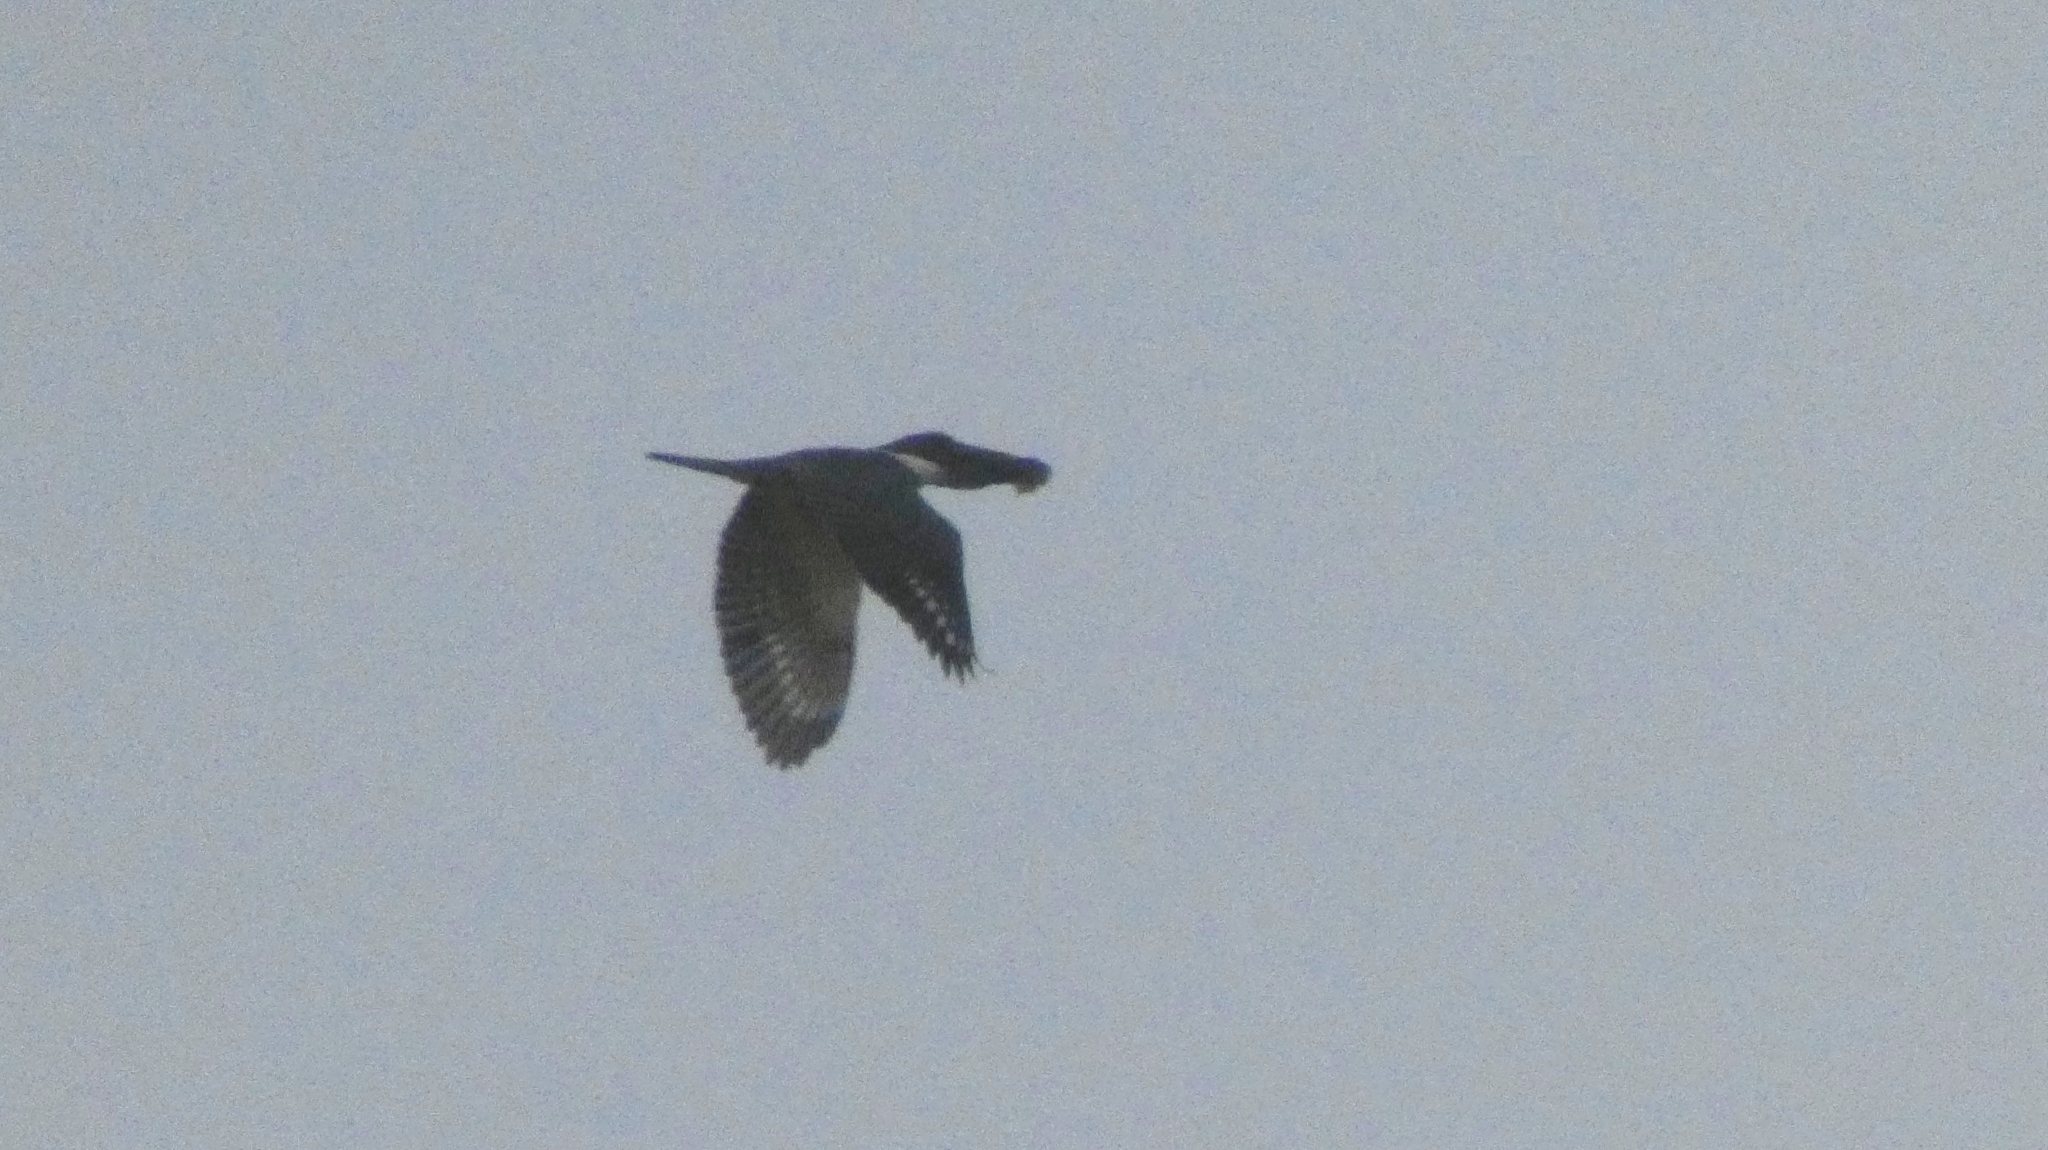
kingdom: Animalia
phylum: Chordata
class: Aves
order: Coraciiformes
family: Alcedinidae
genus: Megaceryle
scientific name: Megaceryle torquata
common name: Ringed kingfisher
